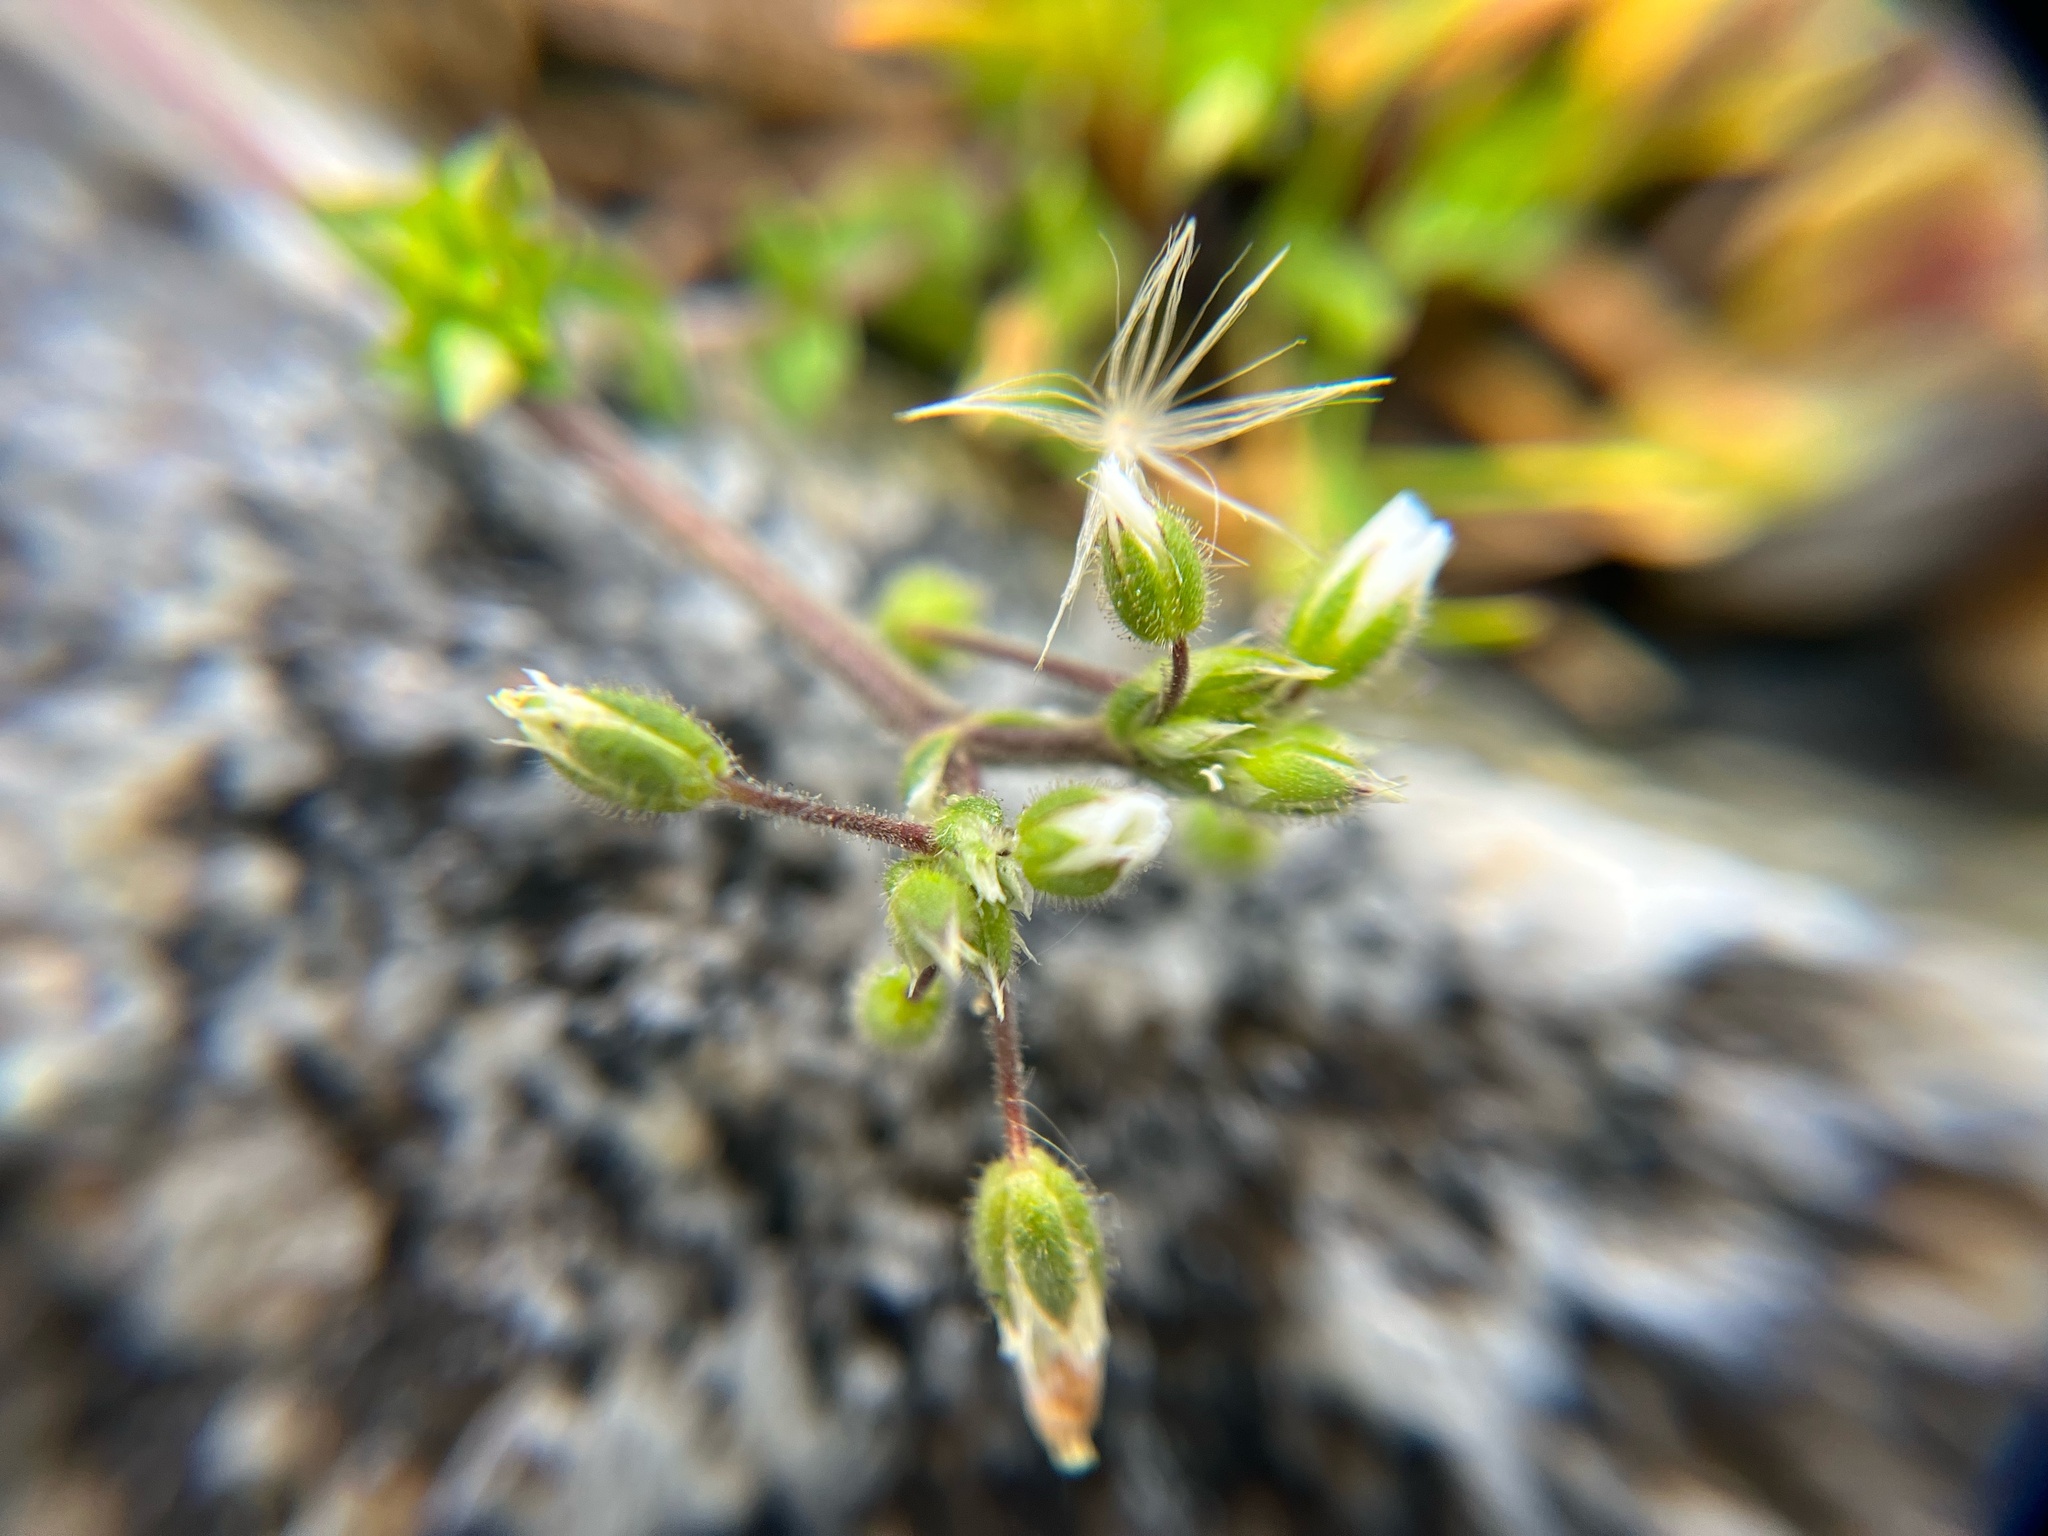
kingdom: Plantae
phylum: Tracheophyta
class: Magnoliopsida
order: Caryophyllales
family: Caryophyllaceae
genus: Cerastium
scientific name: Cerastium semidecandrum
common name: Little mouse-ear
